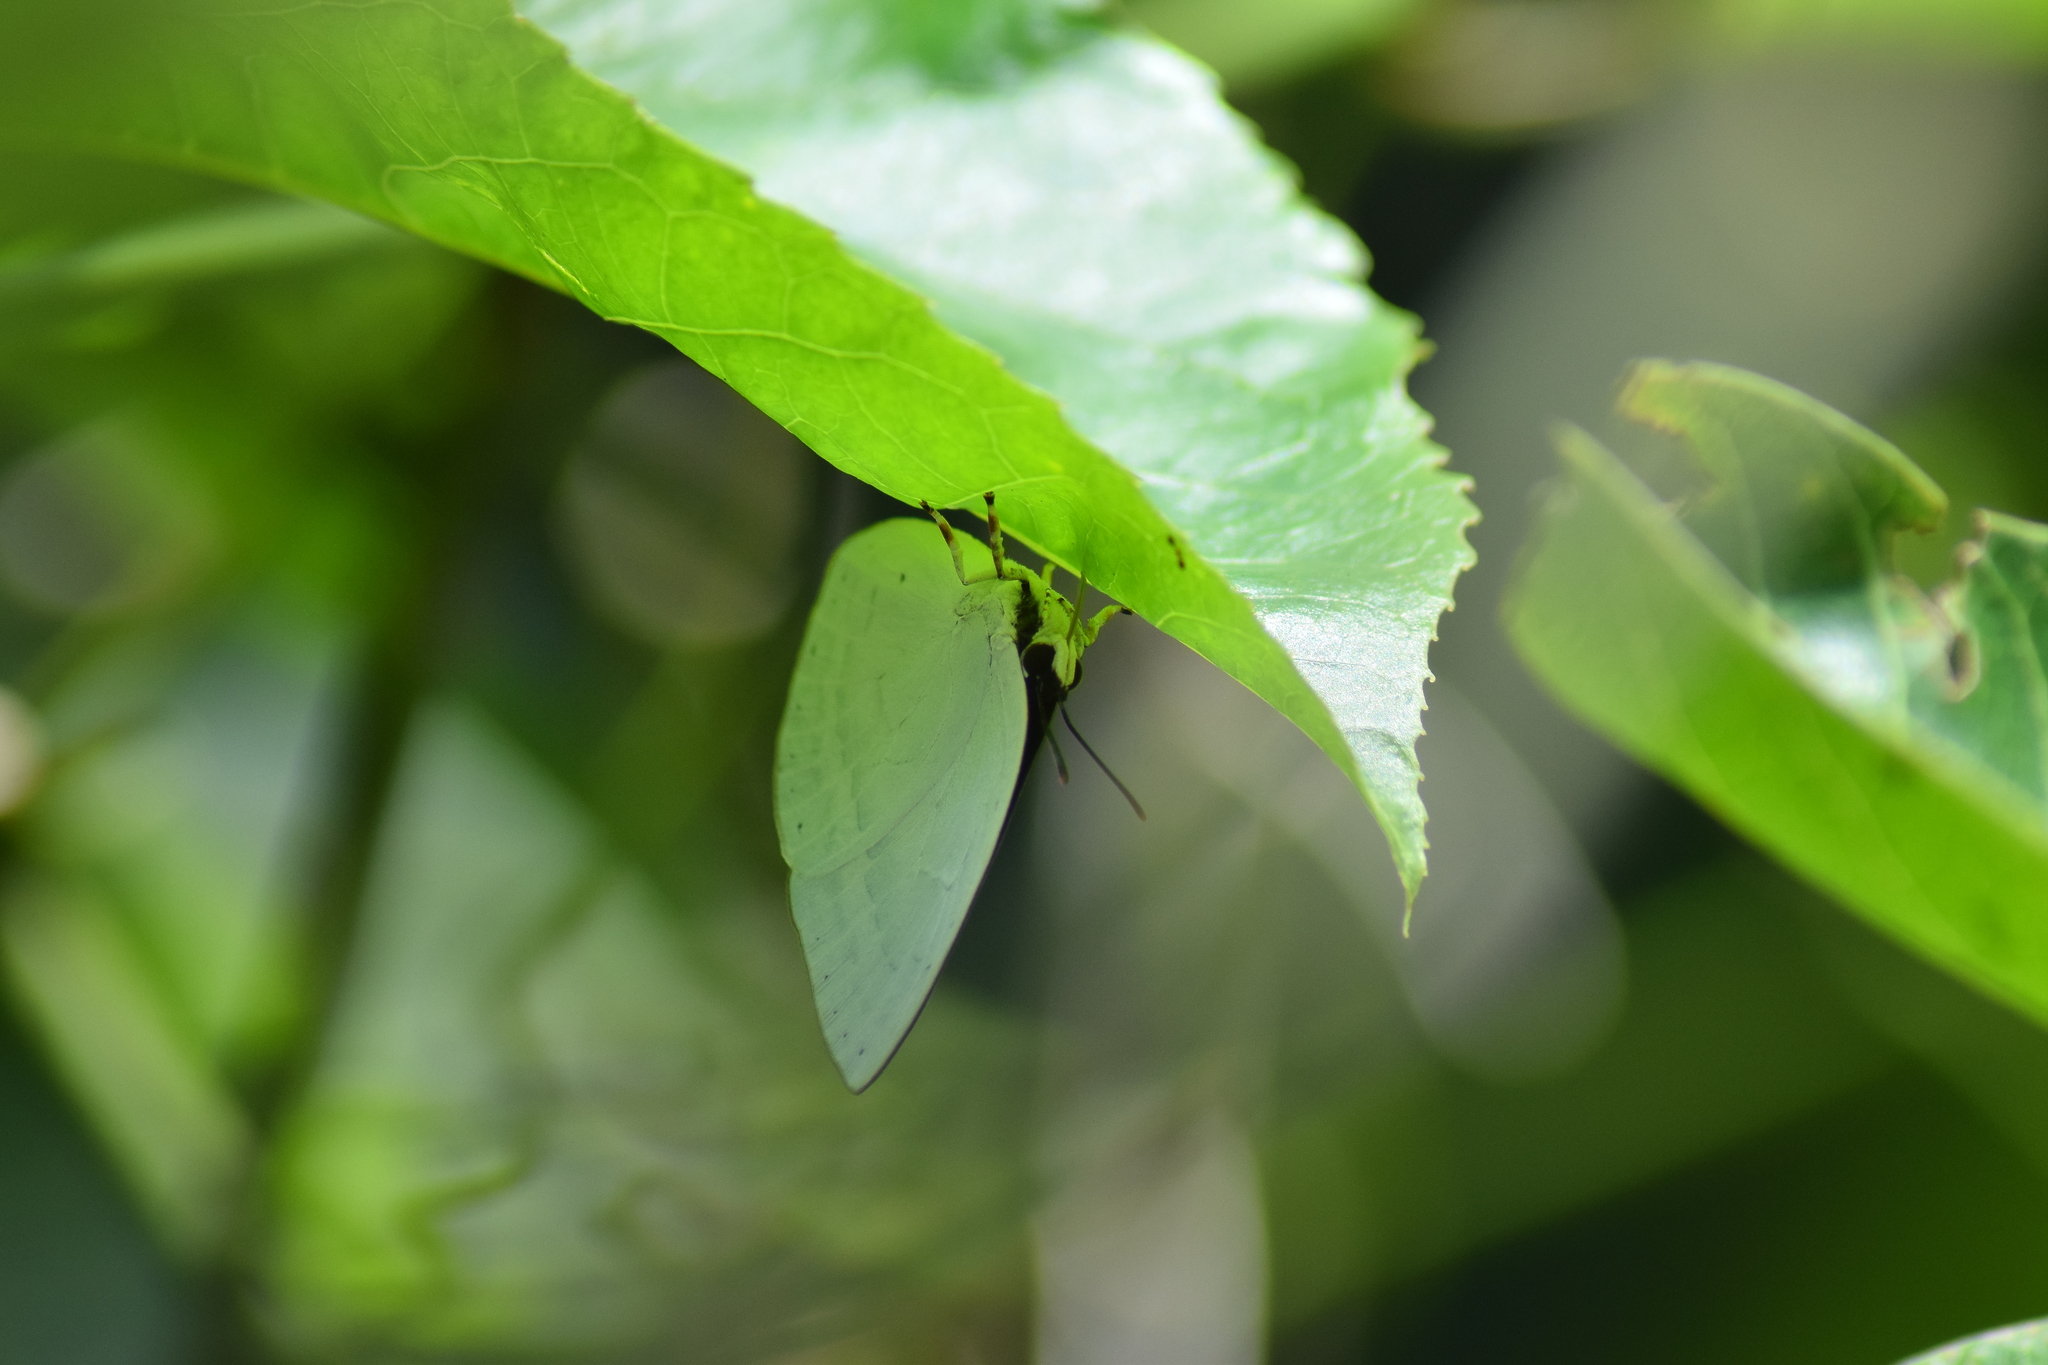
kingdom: Animalia
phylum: Arthropoda
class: Insecta
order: Lepidoptera
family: Lycaenidae
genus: Curetis
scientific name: Curetis thetis
